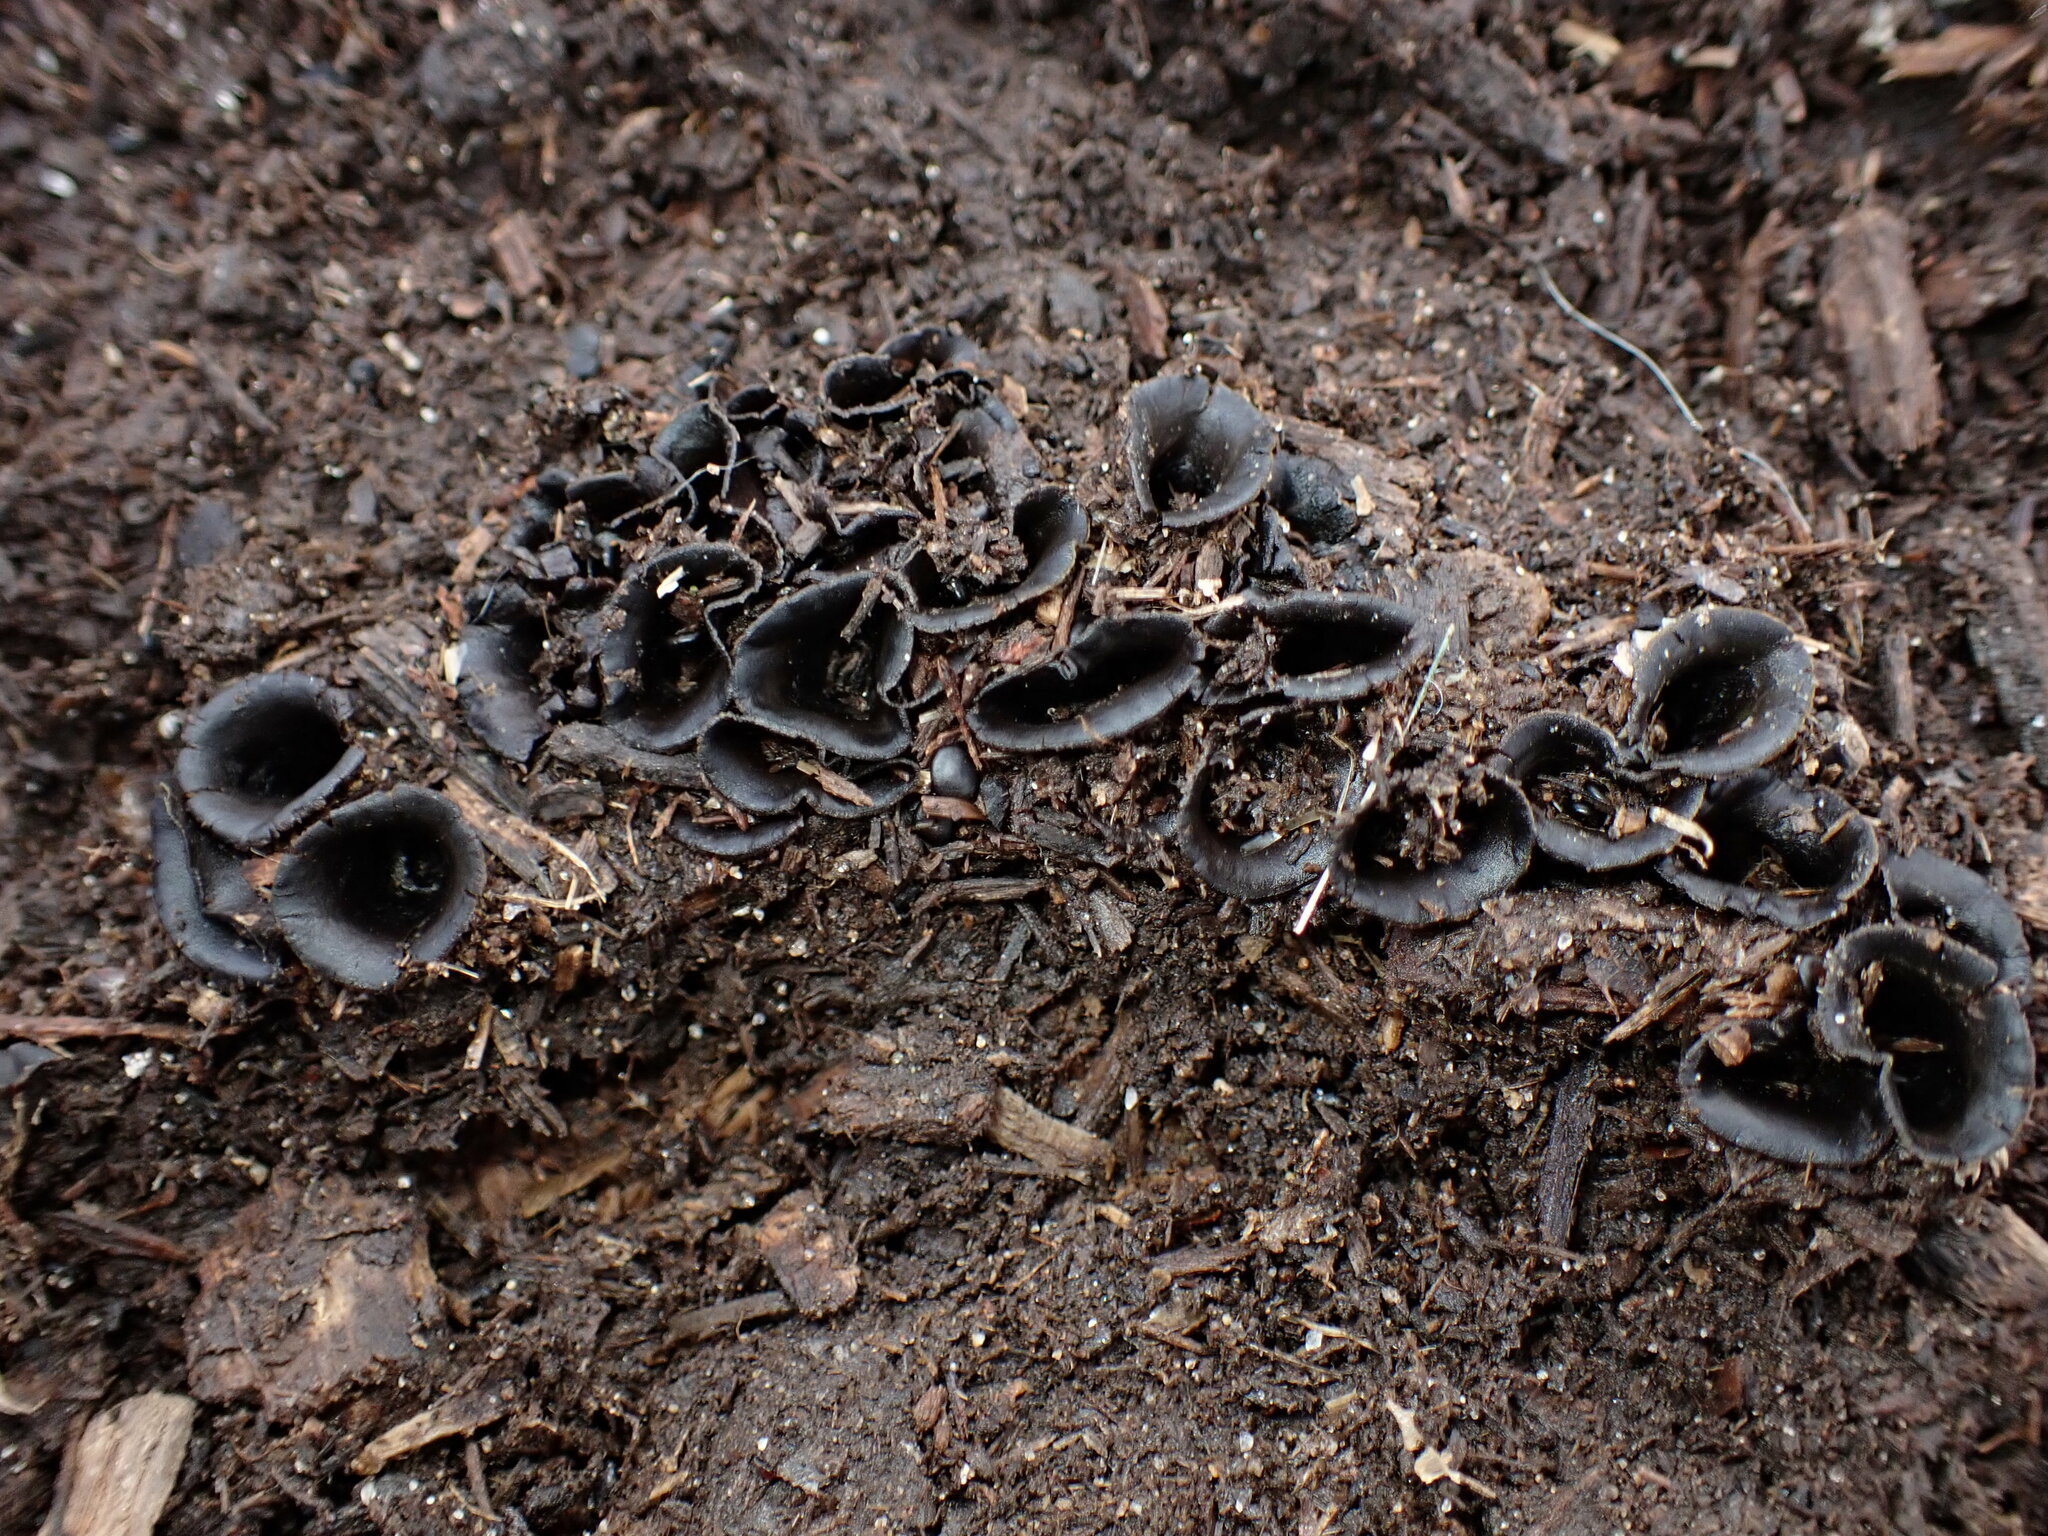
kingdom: Fungi
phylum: Basidiomycota
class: Agaricomycetes
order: Agaricales
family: Agaricaceae
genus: Cyathus
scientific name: Cyathus stercoreus
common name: Dung bird's nest
